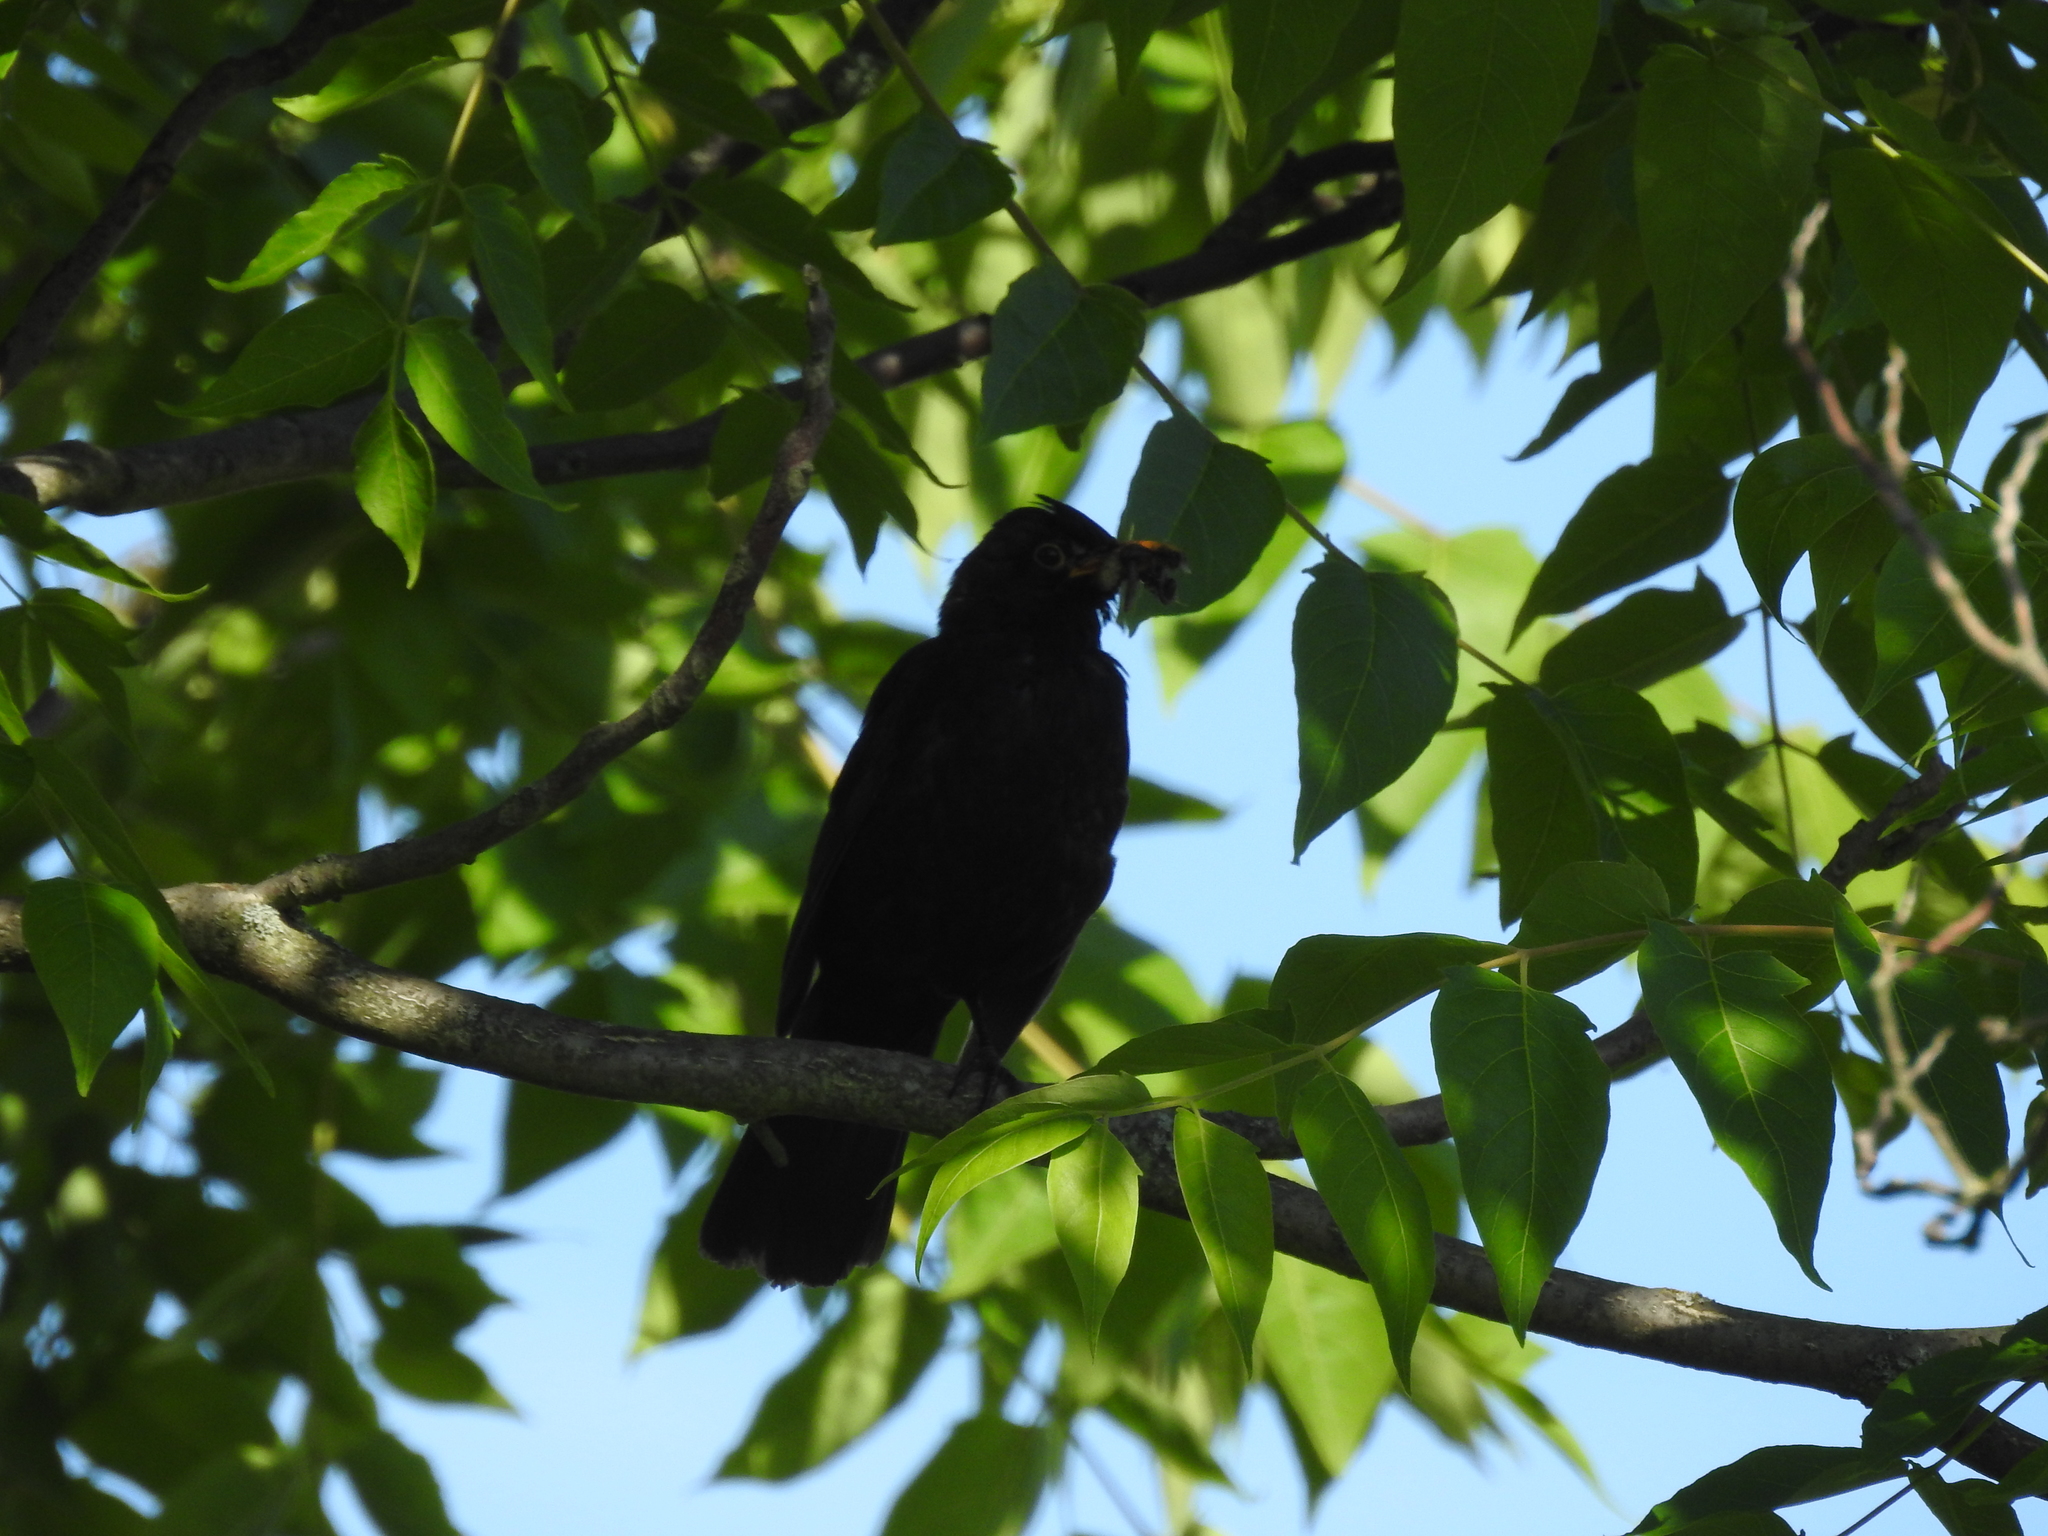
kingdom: Animalia
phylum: Chordata
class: Aves
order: Passeriformes
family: Turdidae
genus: Turdus
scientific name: Turdus merula
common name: Common blackbird
